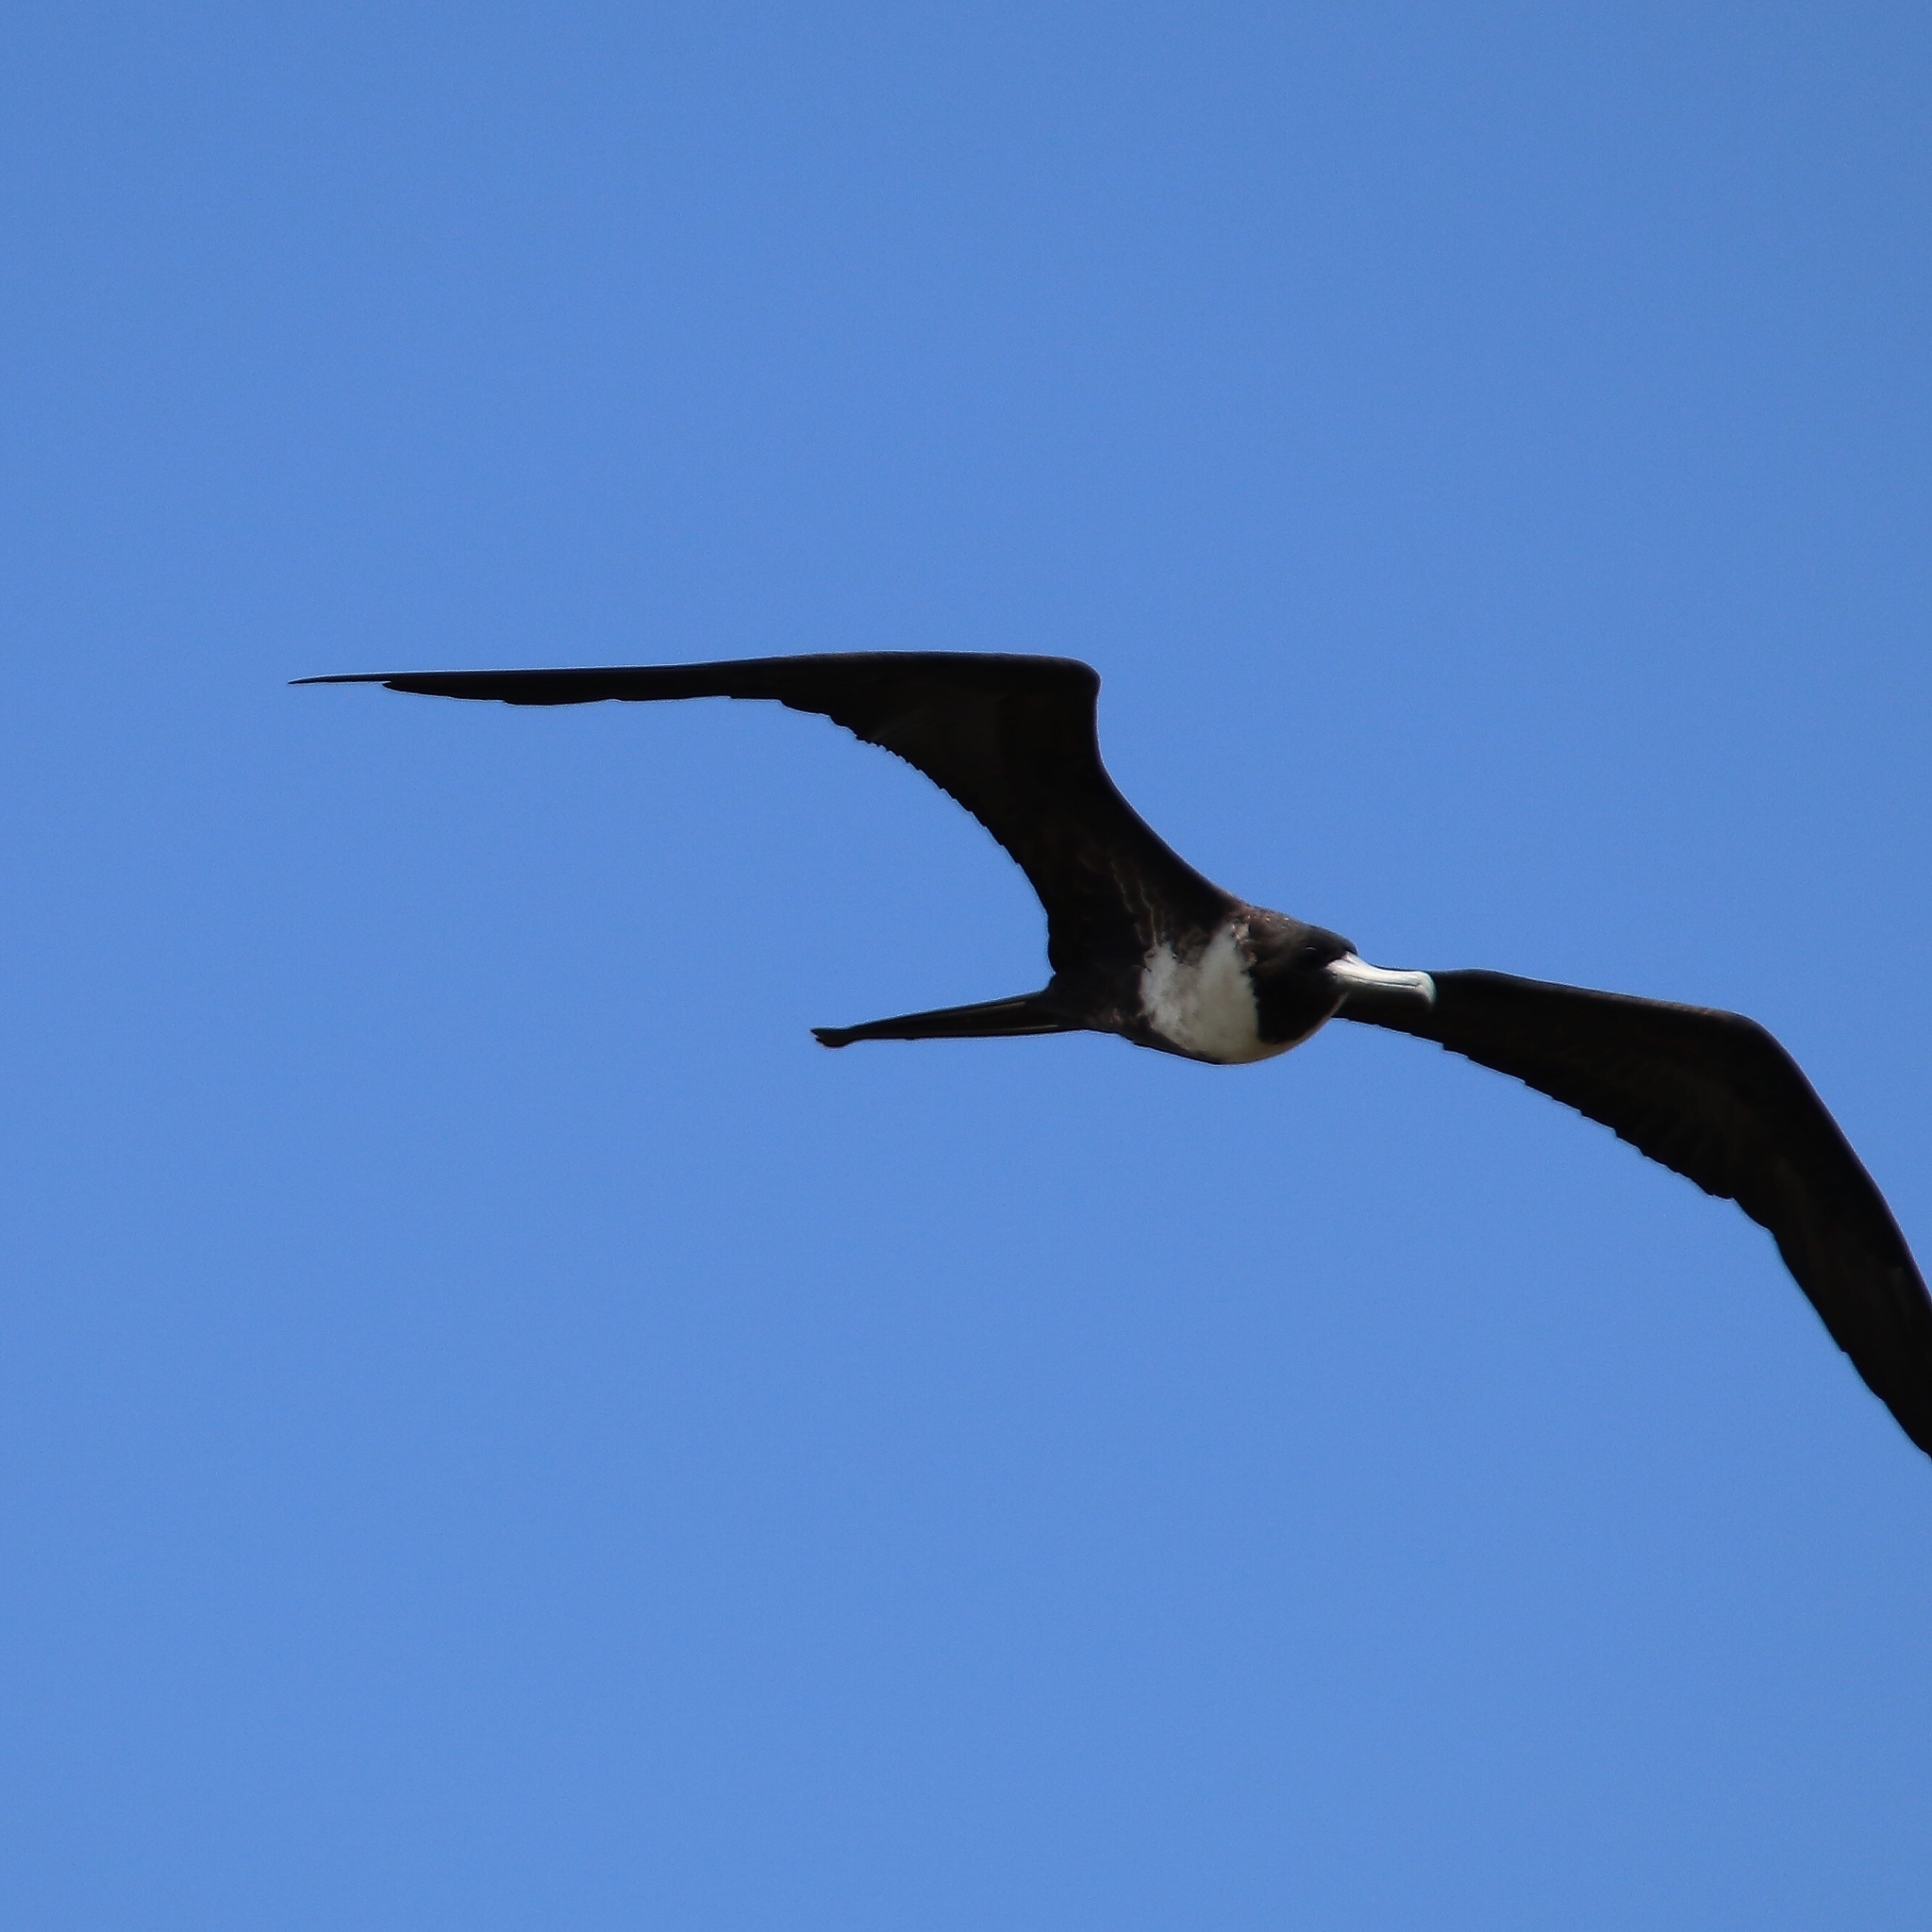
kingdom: Animalia
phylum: Chordata
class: Aves
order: Suliformes
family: Fregatidae
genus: Fregata
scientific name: Fregata magnificens
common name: Magnificent frigatebird
